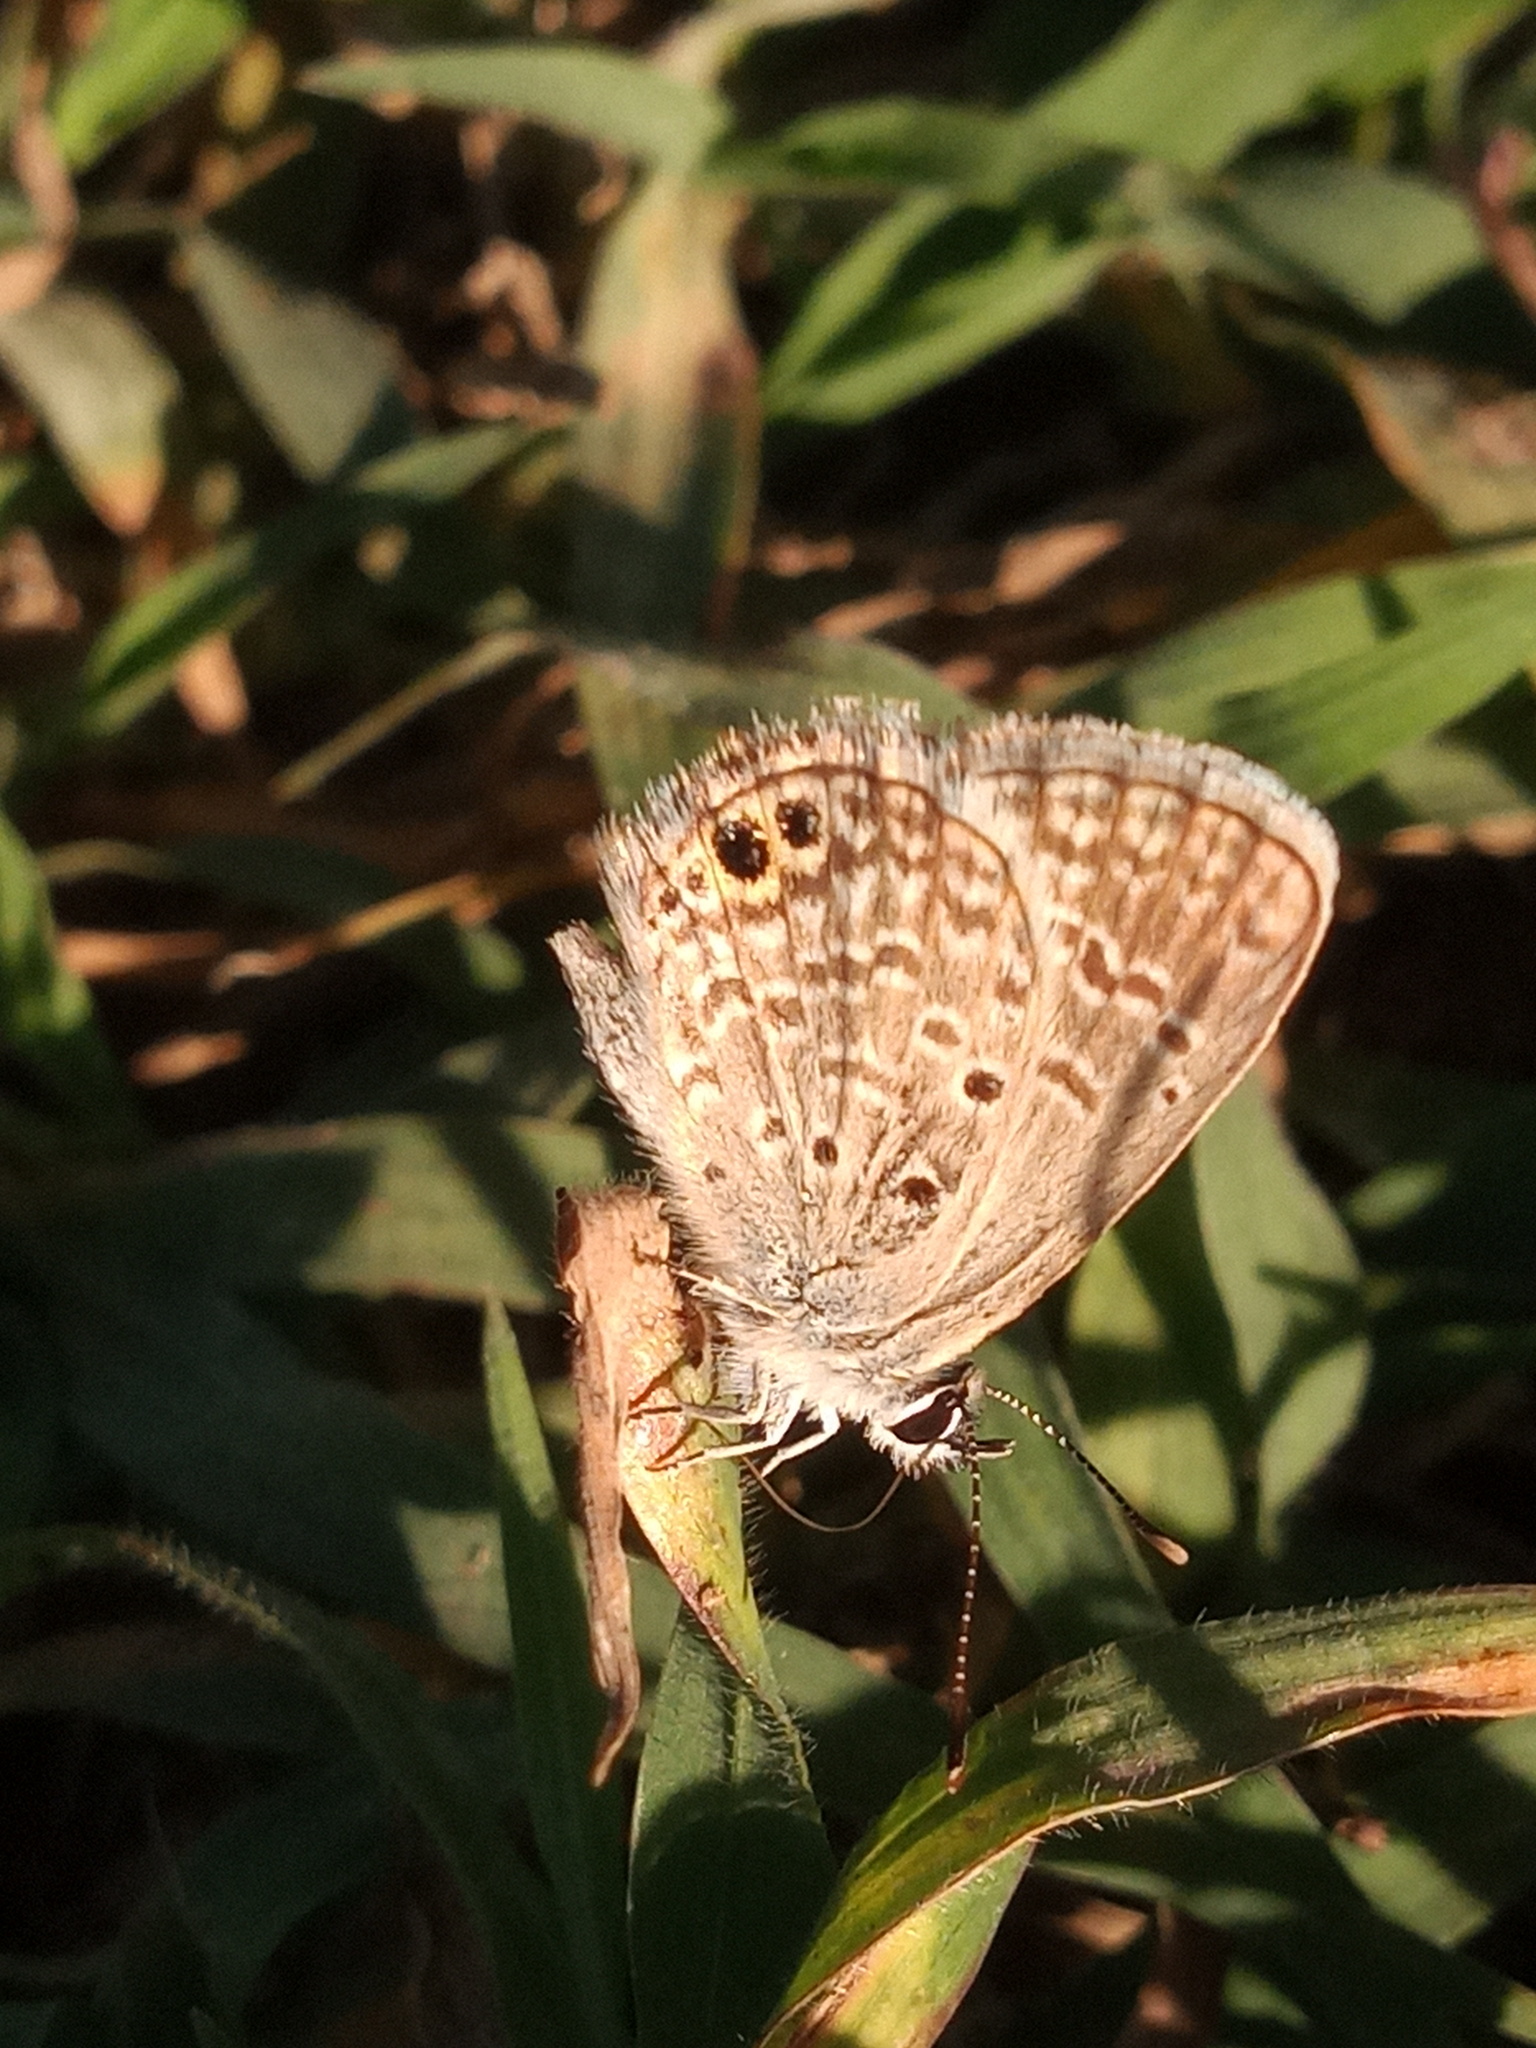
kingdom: Animalia
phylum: Arthropoda
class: Insecta
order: Lepidoptera
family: Lycaenidae
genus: Hemiargus
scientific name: Hemiargus ceraunus
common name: Ceraunus blue
